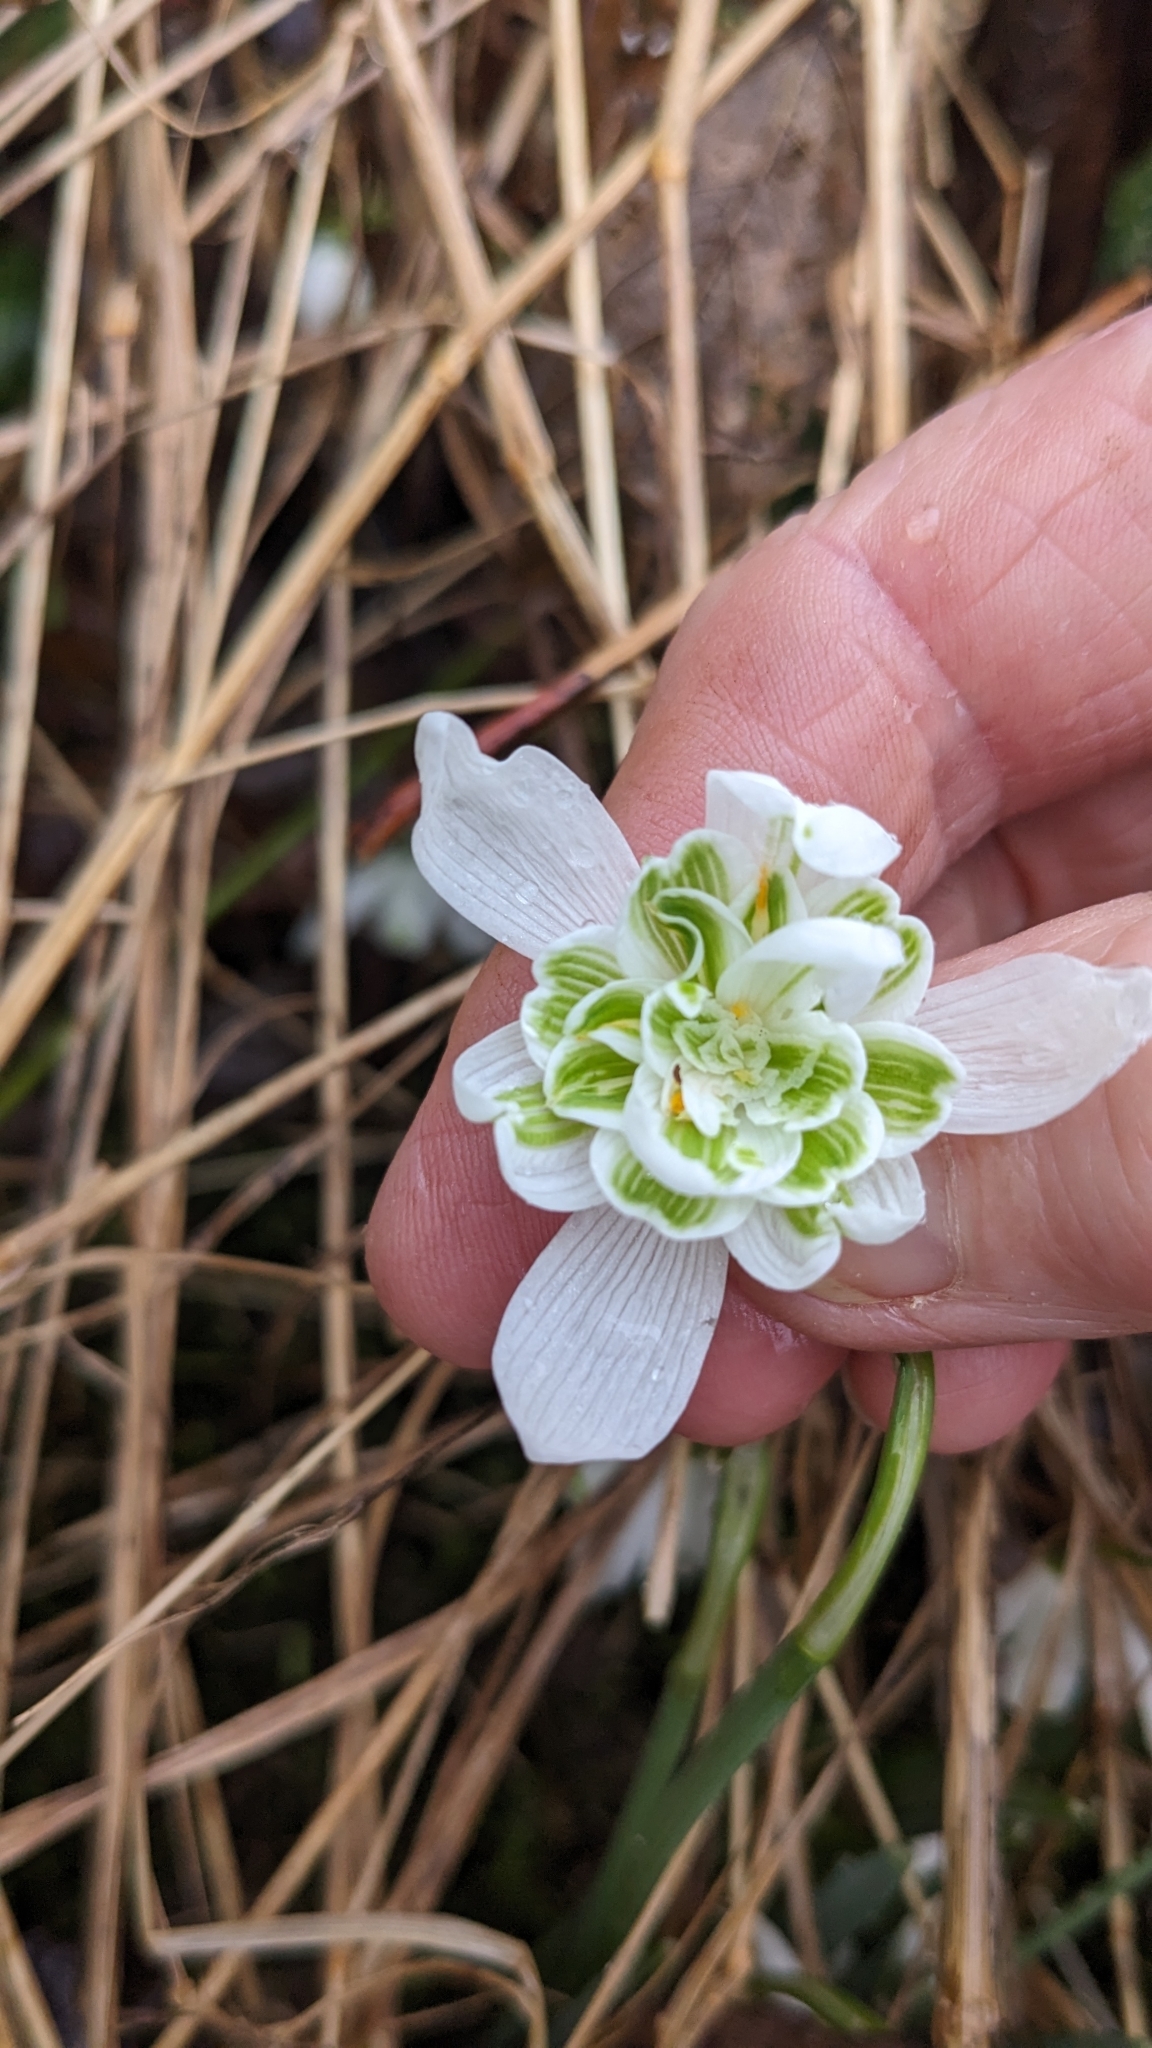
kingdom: Plantae
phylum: Tracheophyta
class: Liliopsida
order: Asparagales
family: Amaryllidaceae
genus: Galanthus
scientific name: Galanthus nivalis
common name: Snowdrop
